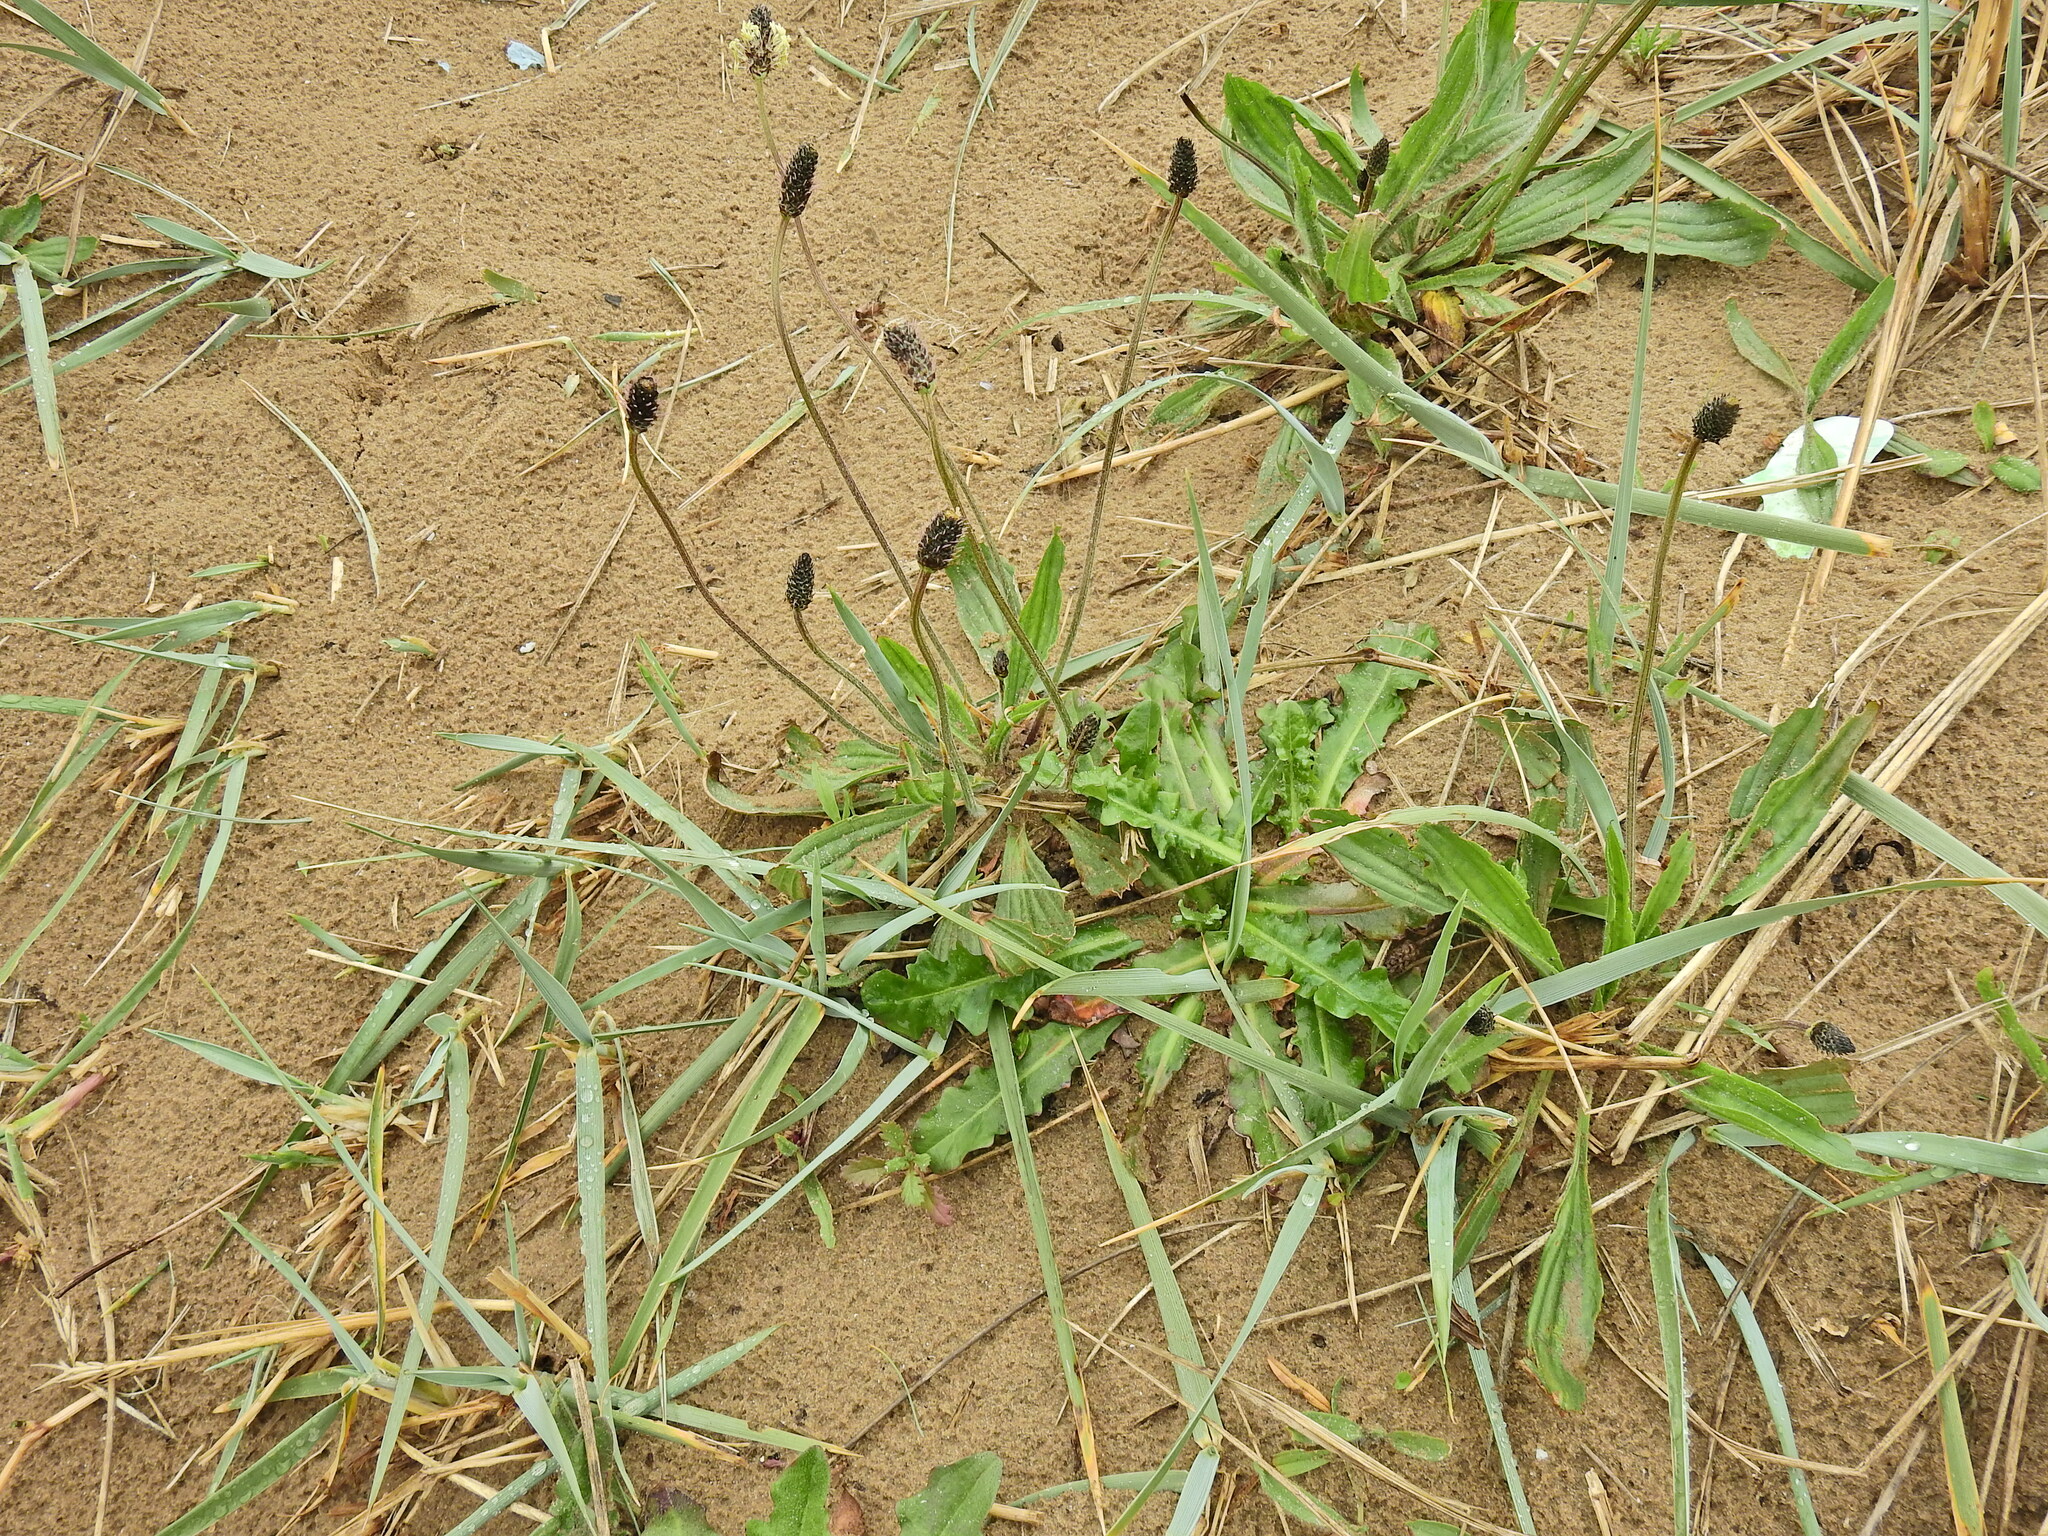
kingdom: Plantae
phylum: Tracheophyta
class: Magnoliopsida
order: Lamiales
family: Plantaginaceae
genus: Plantago
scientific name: Plantago lanceolata
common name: Ribwort plantain
